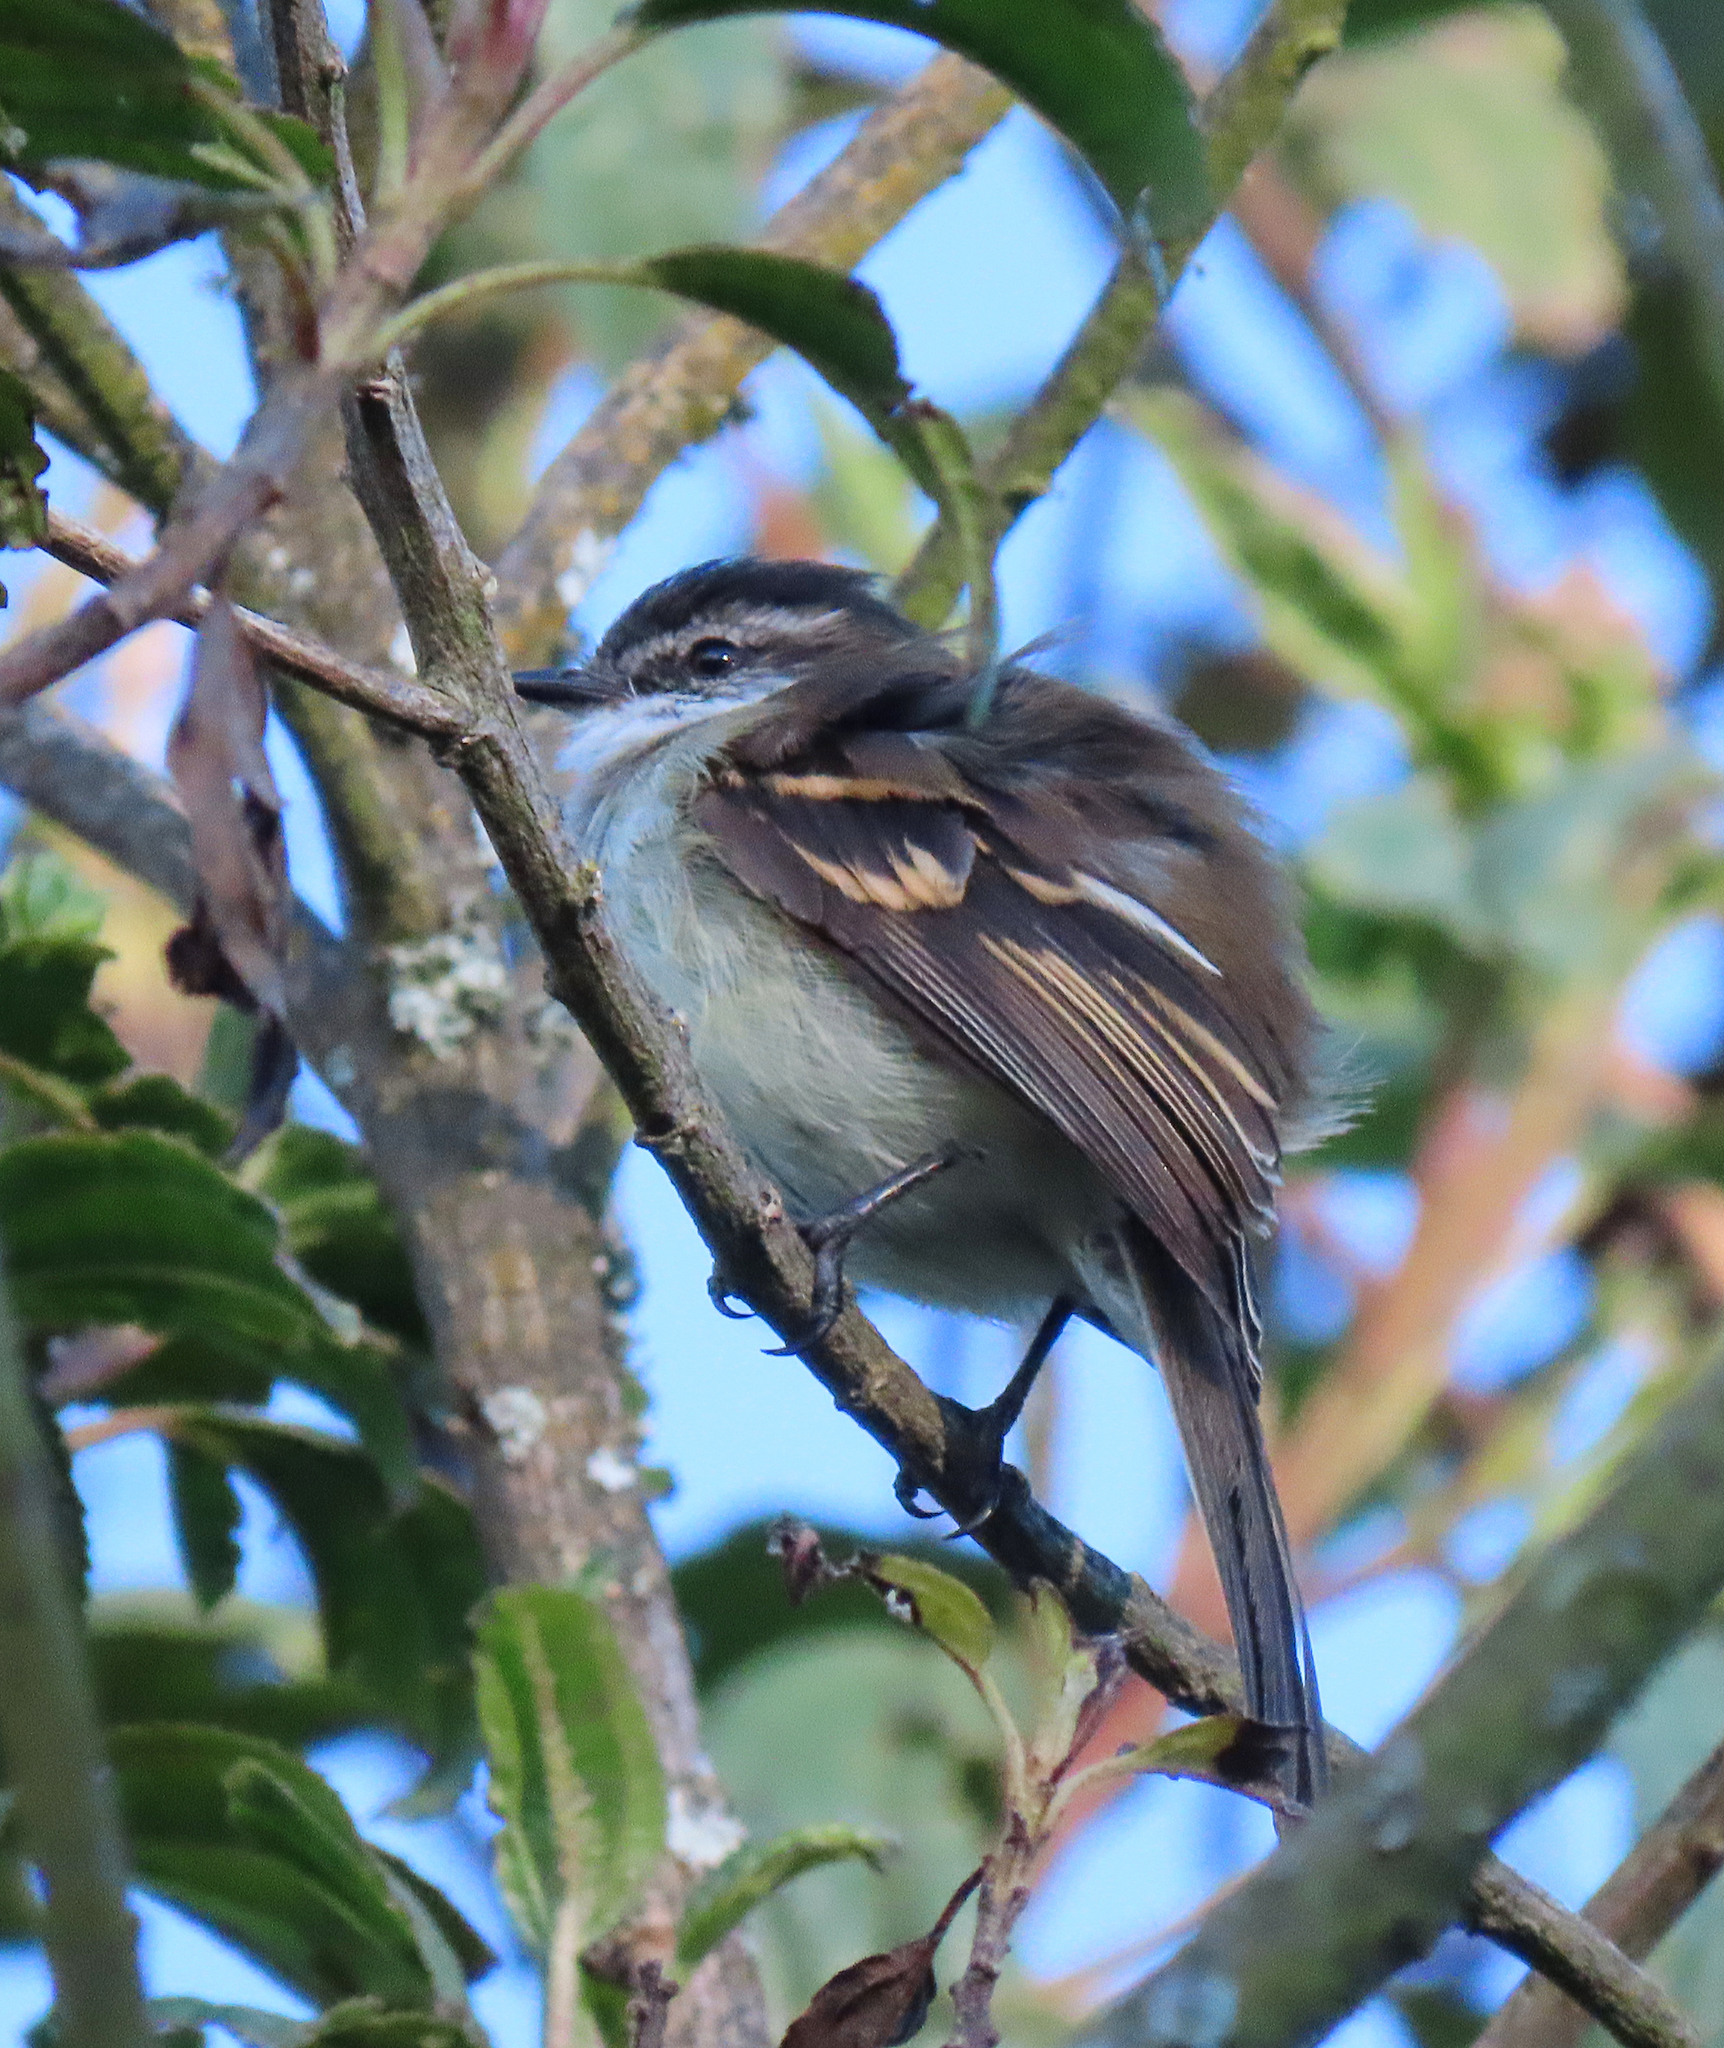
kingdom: Animalia
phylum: Chordata
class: Aves
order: Passeriformes
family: Tyrannidae
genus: Mecocerculus
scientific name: Mecocerculus leucophrys
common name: White-throated tyrannulet
